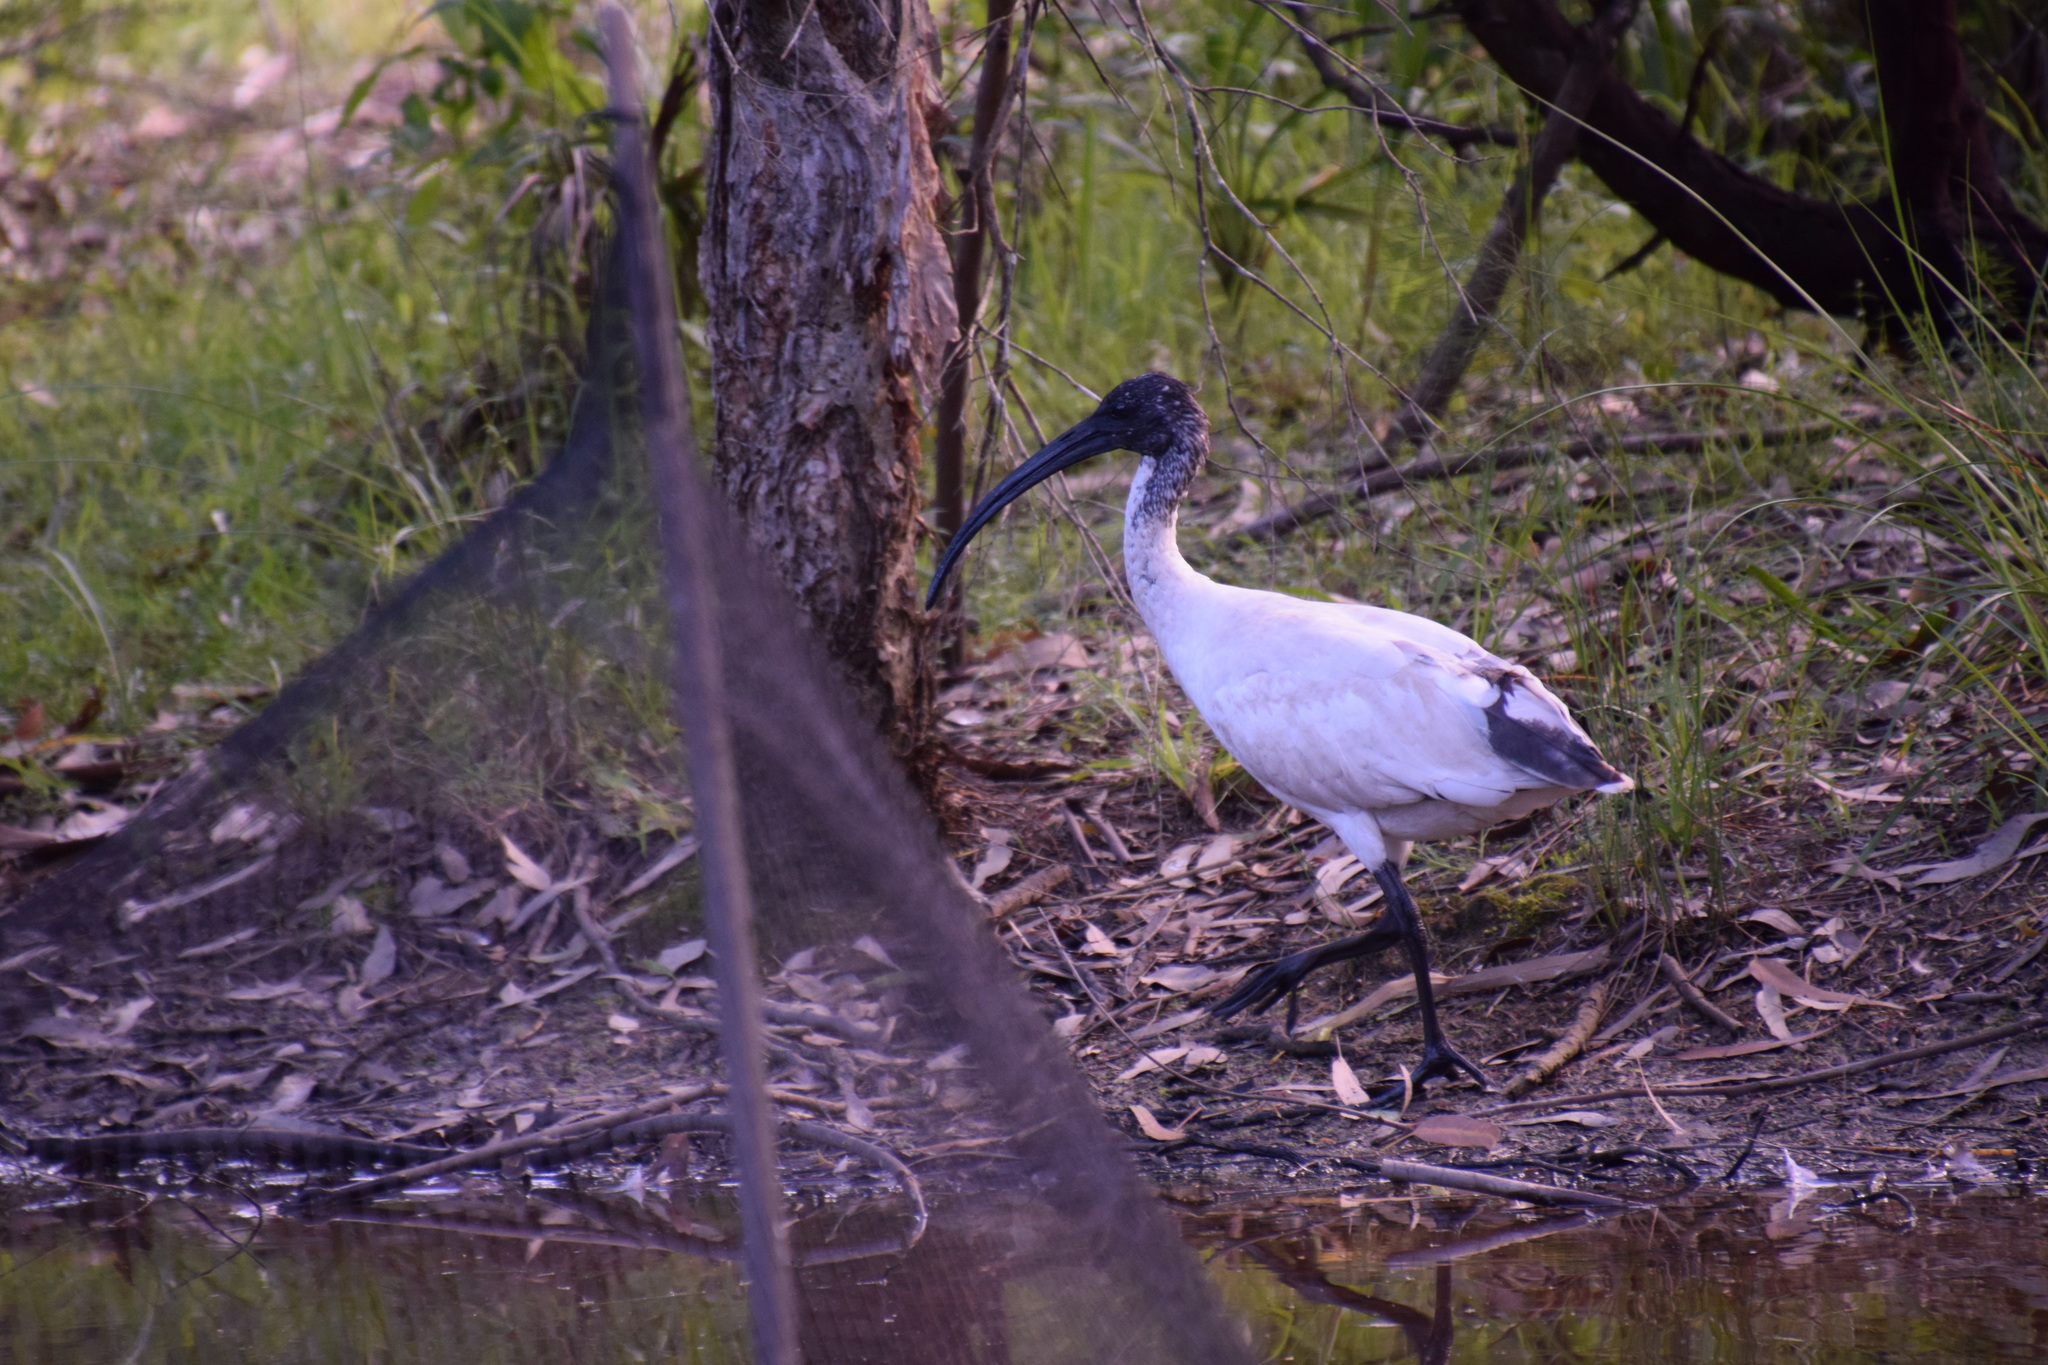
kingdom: Animalia
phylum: Chordata
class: Aves
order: Pelecaniformes
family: Threskiornithidae
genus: Threskiornis
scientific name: Threskiornis molucca
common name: Australian white ibis
